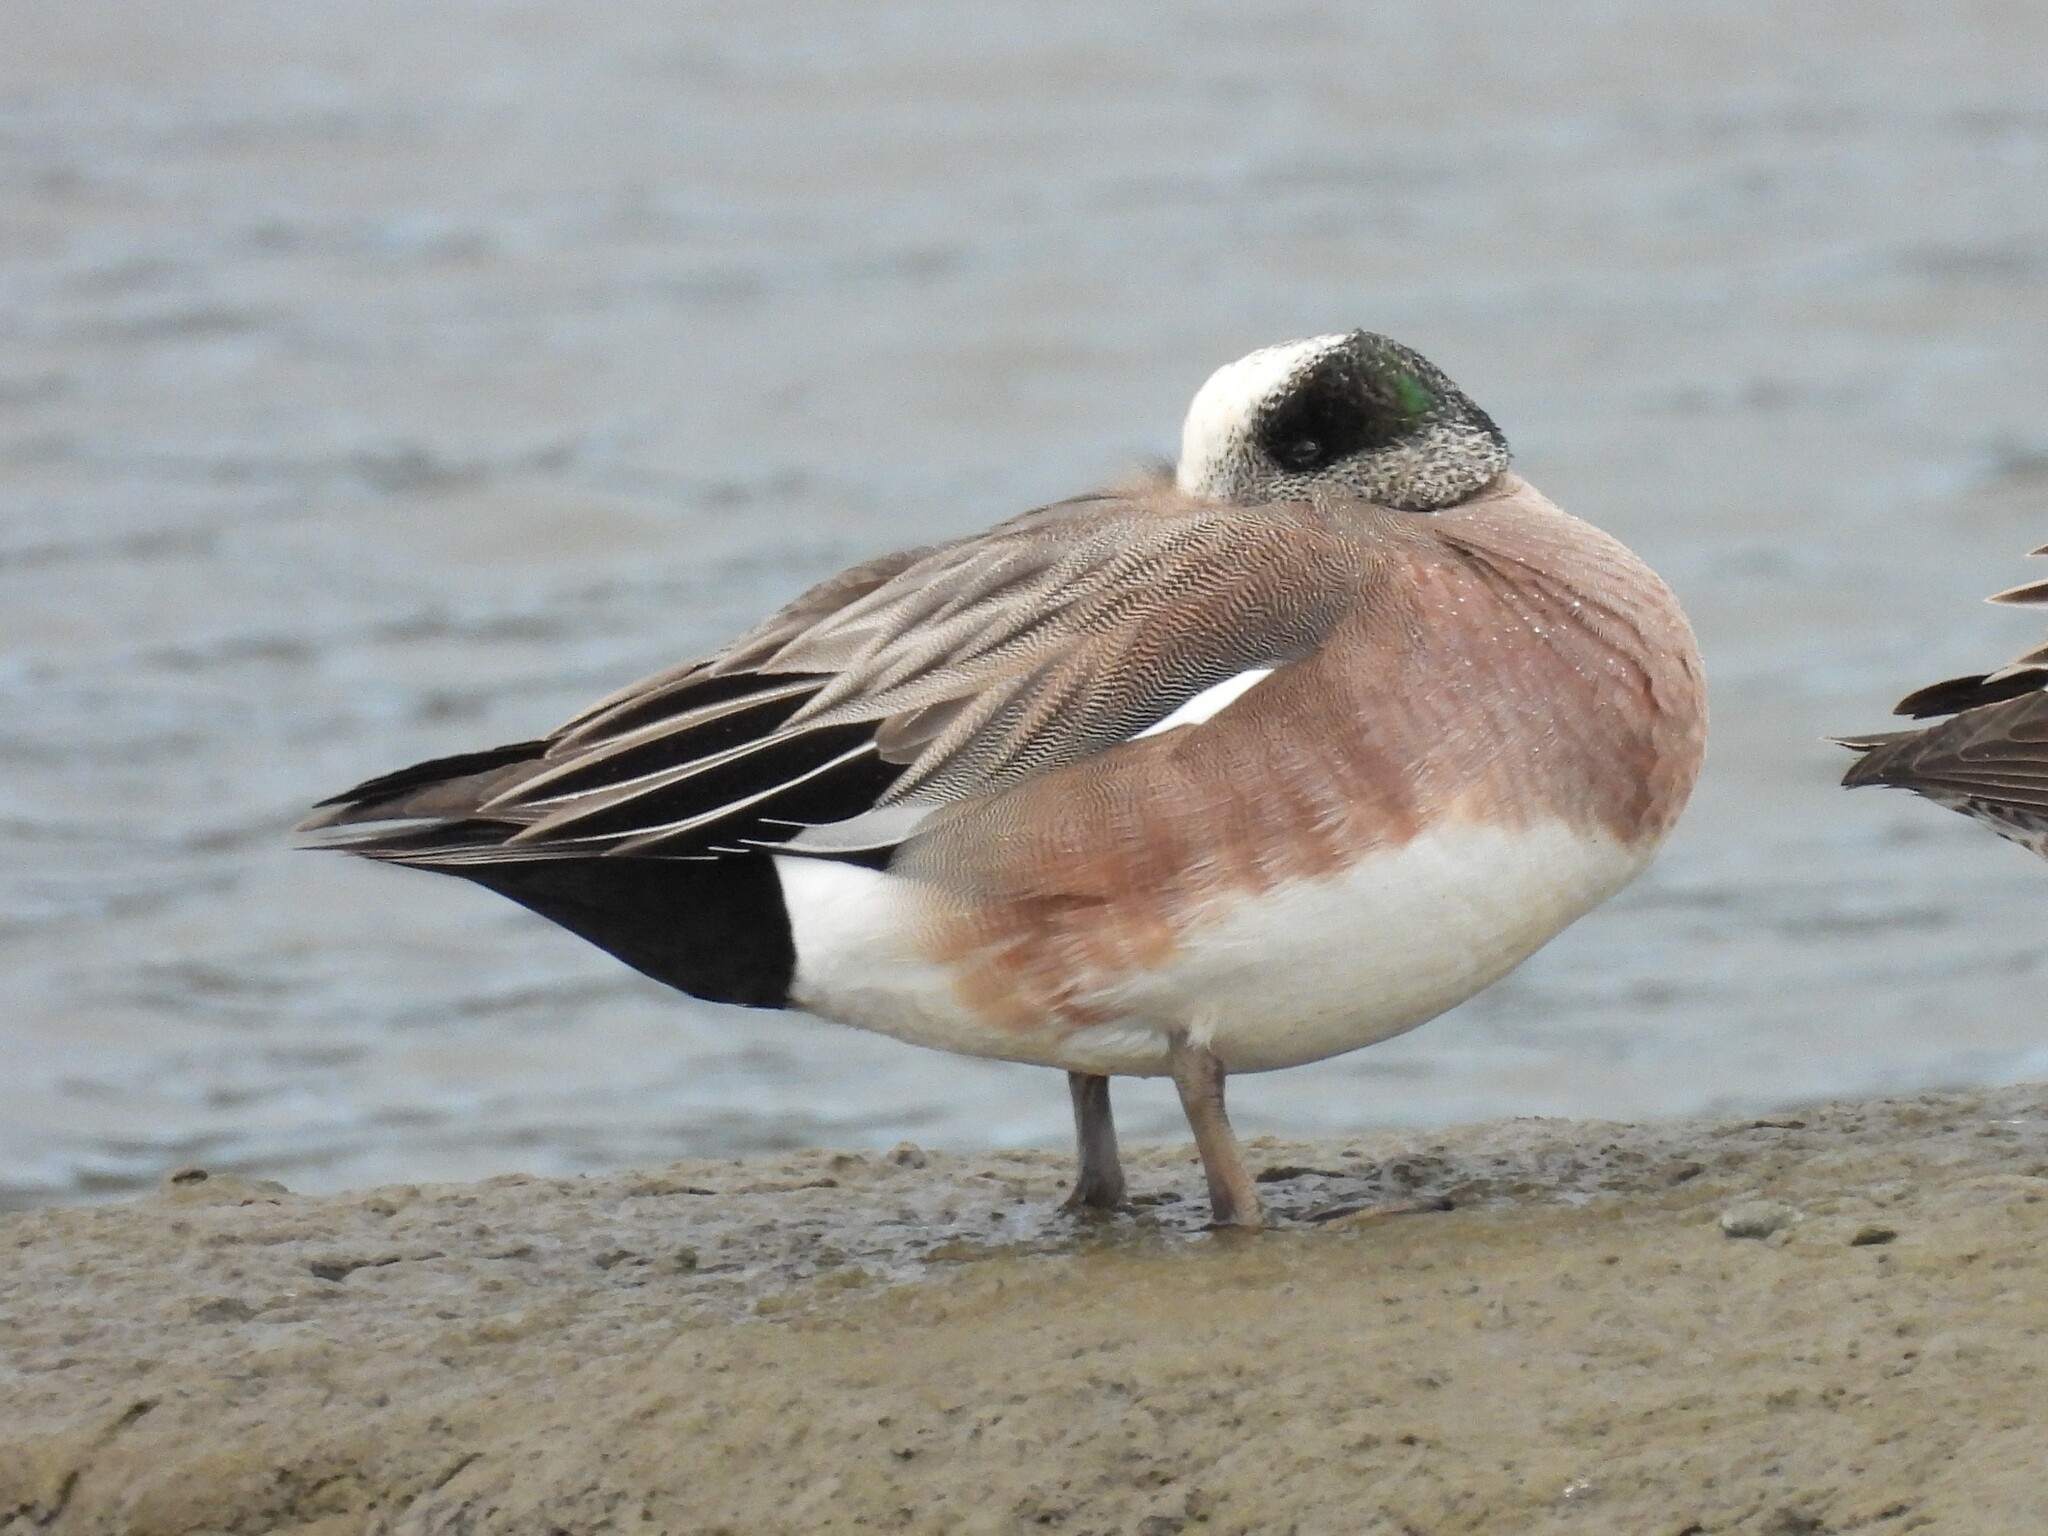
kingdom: Animalia
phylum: Chordata
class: Aves
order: Anseriformes
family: Anatidae
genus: Mareca
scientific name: Mareca americana
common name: American wigeon
